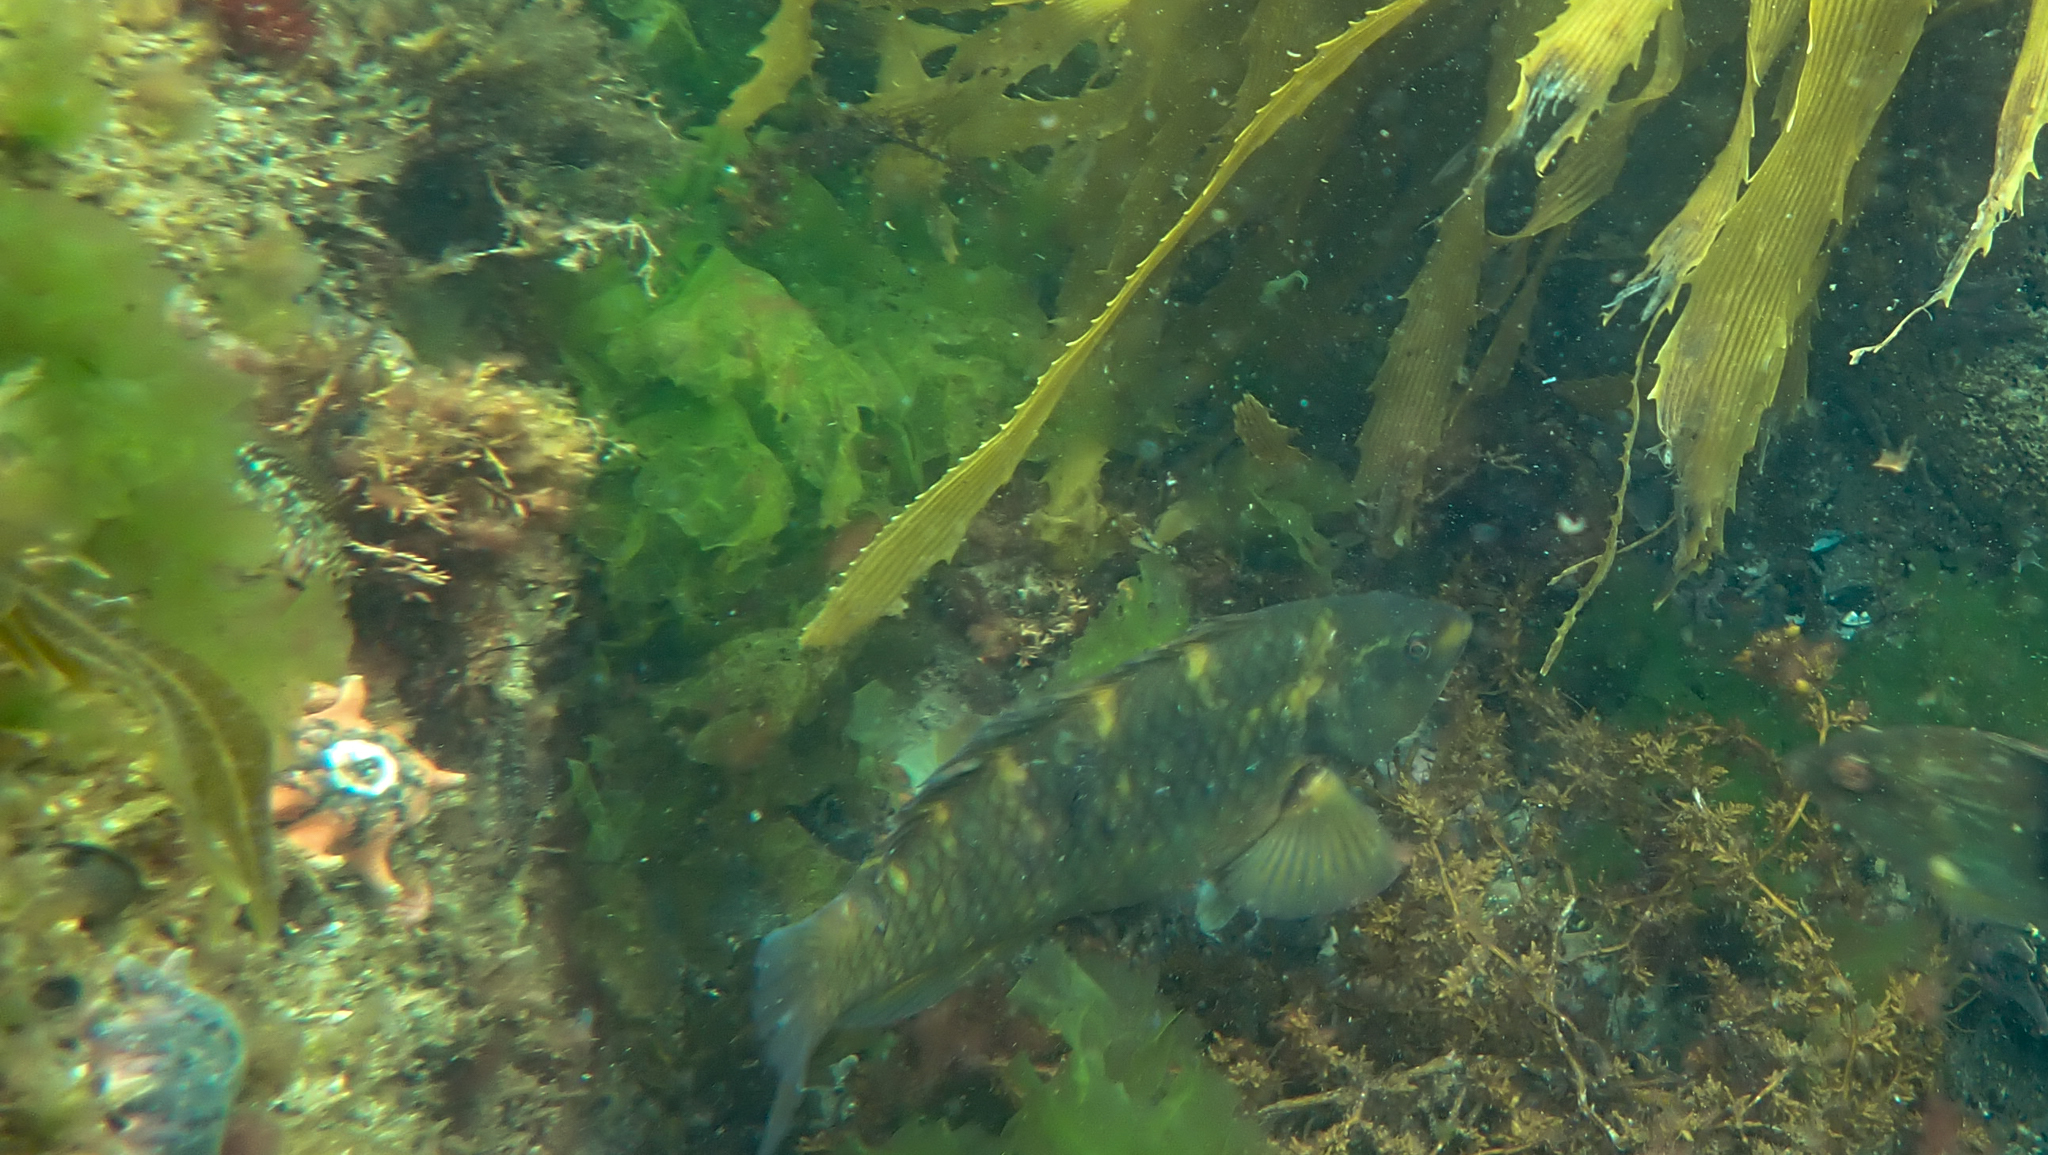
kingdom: Animalia
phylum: Chordata
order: Perciformes
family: Labridae
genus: Notolabrus
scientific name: Notolabrus fucicola
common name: Banded parrotfish
